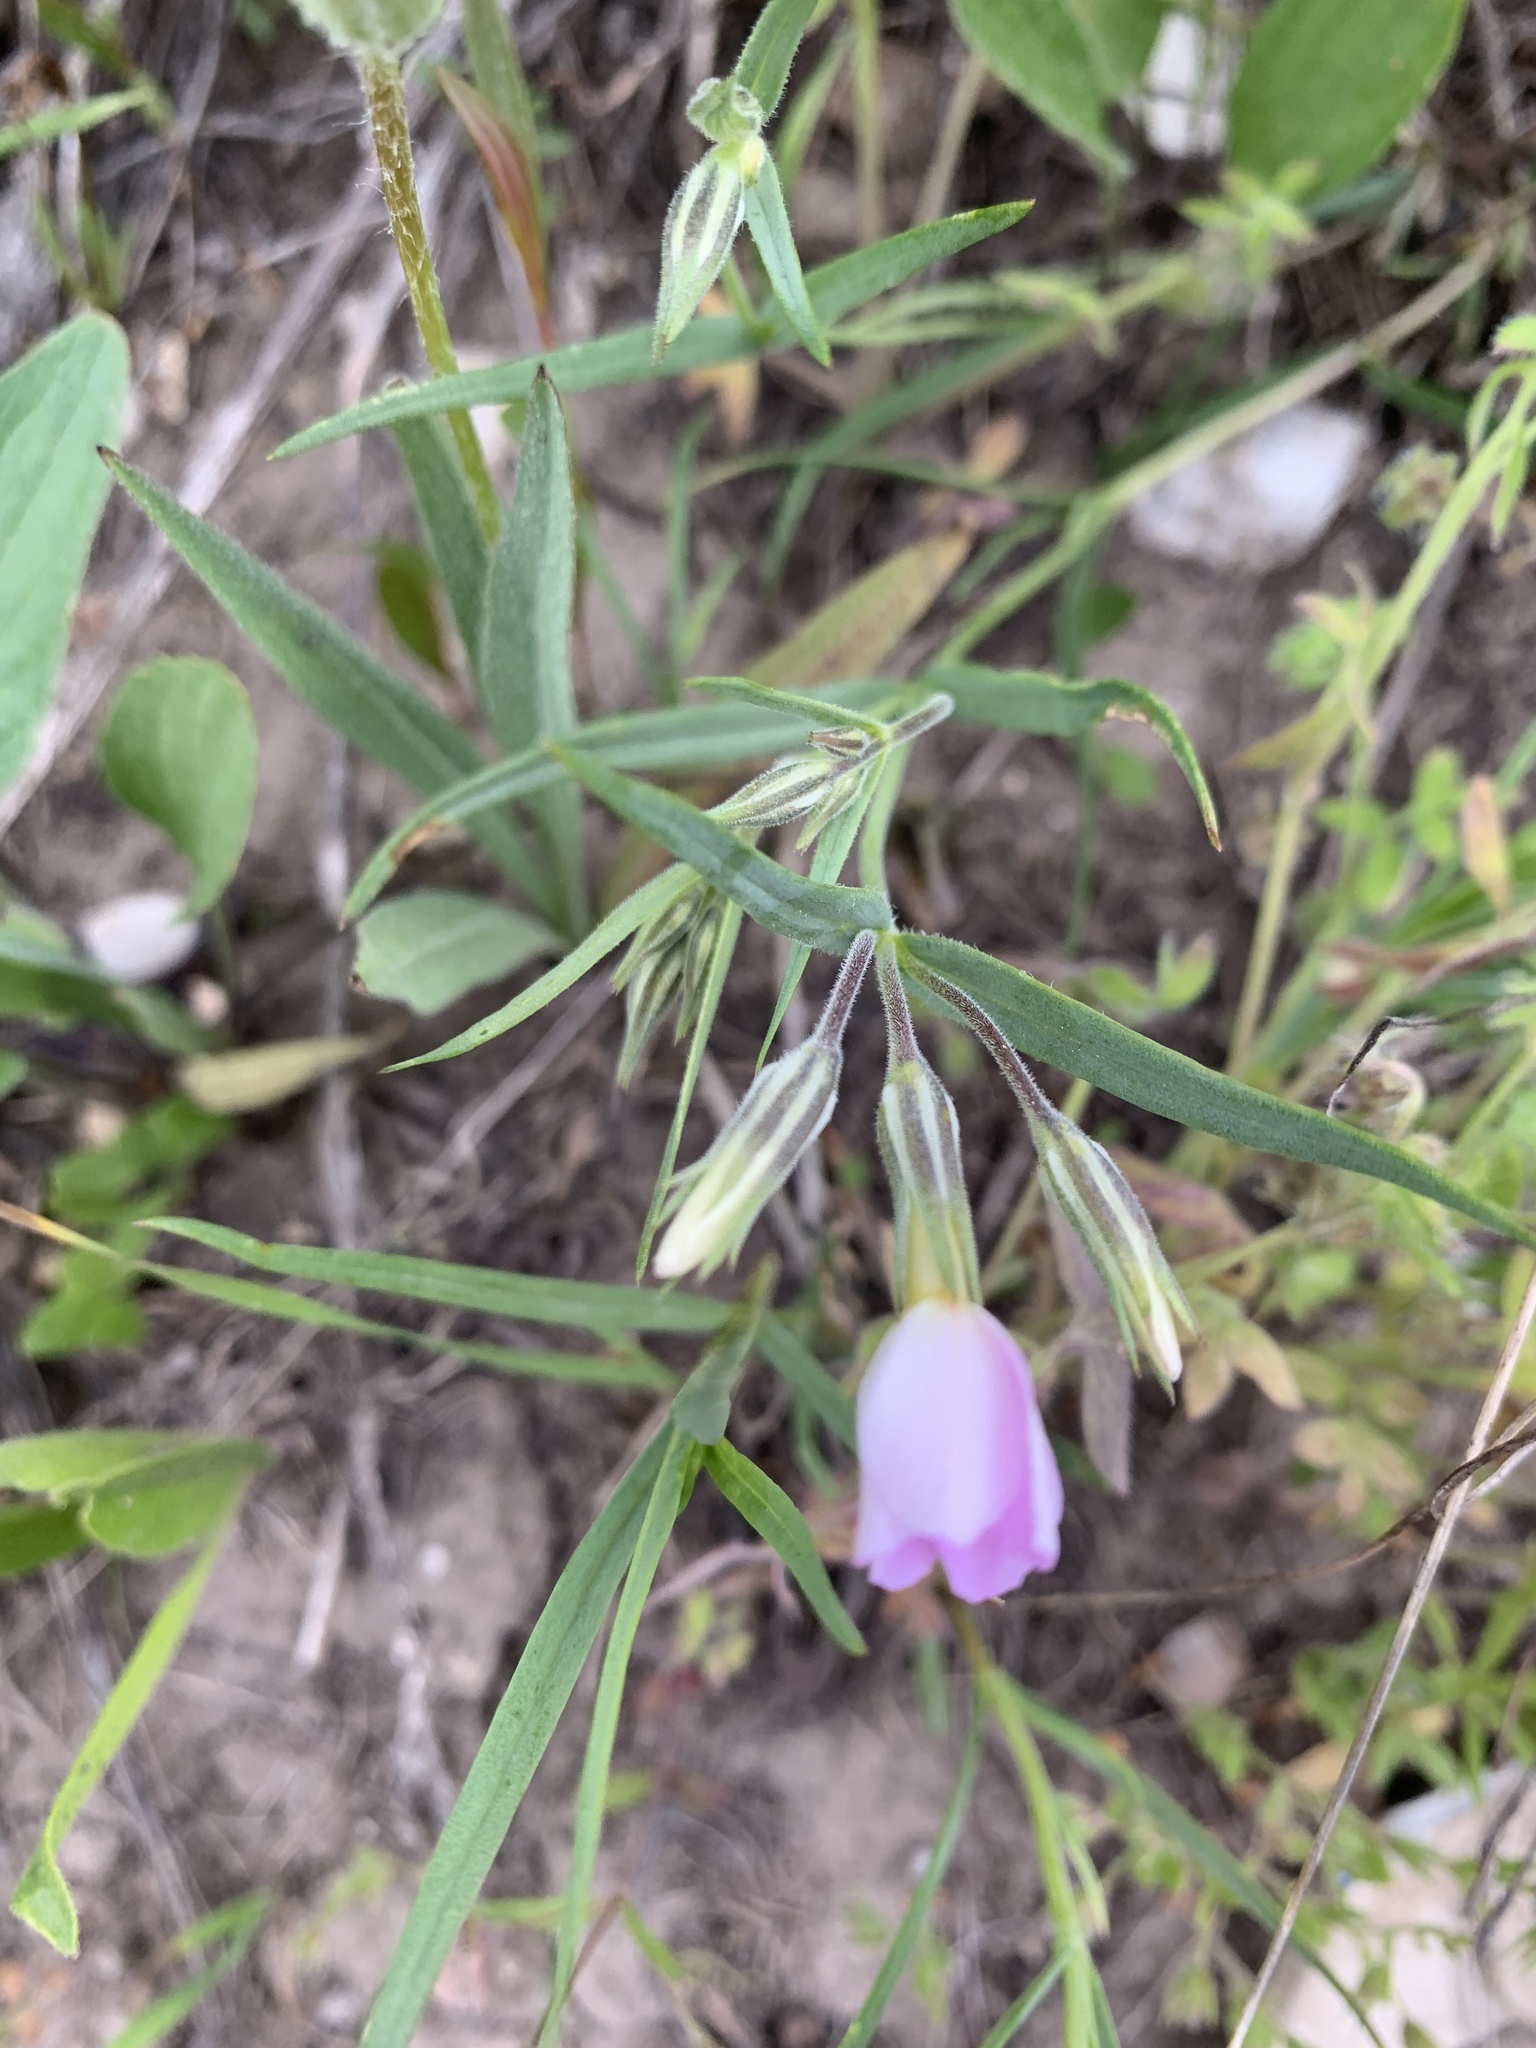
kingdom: Plantae
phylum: Tracheophyta
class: Magnoliopsida
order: Ericales
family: Polemoniaceae
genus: Phlox
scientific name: Phlox longifolia
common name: Longleaf phlox
